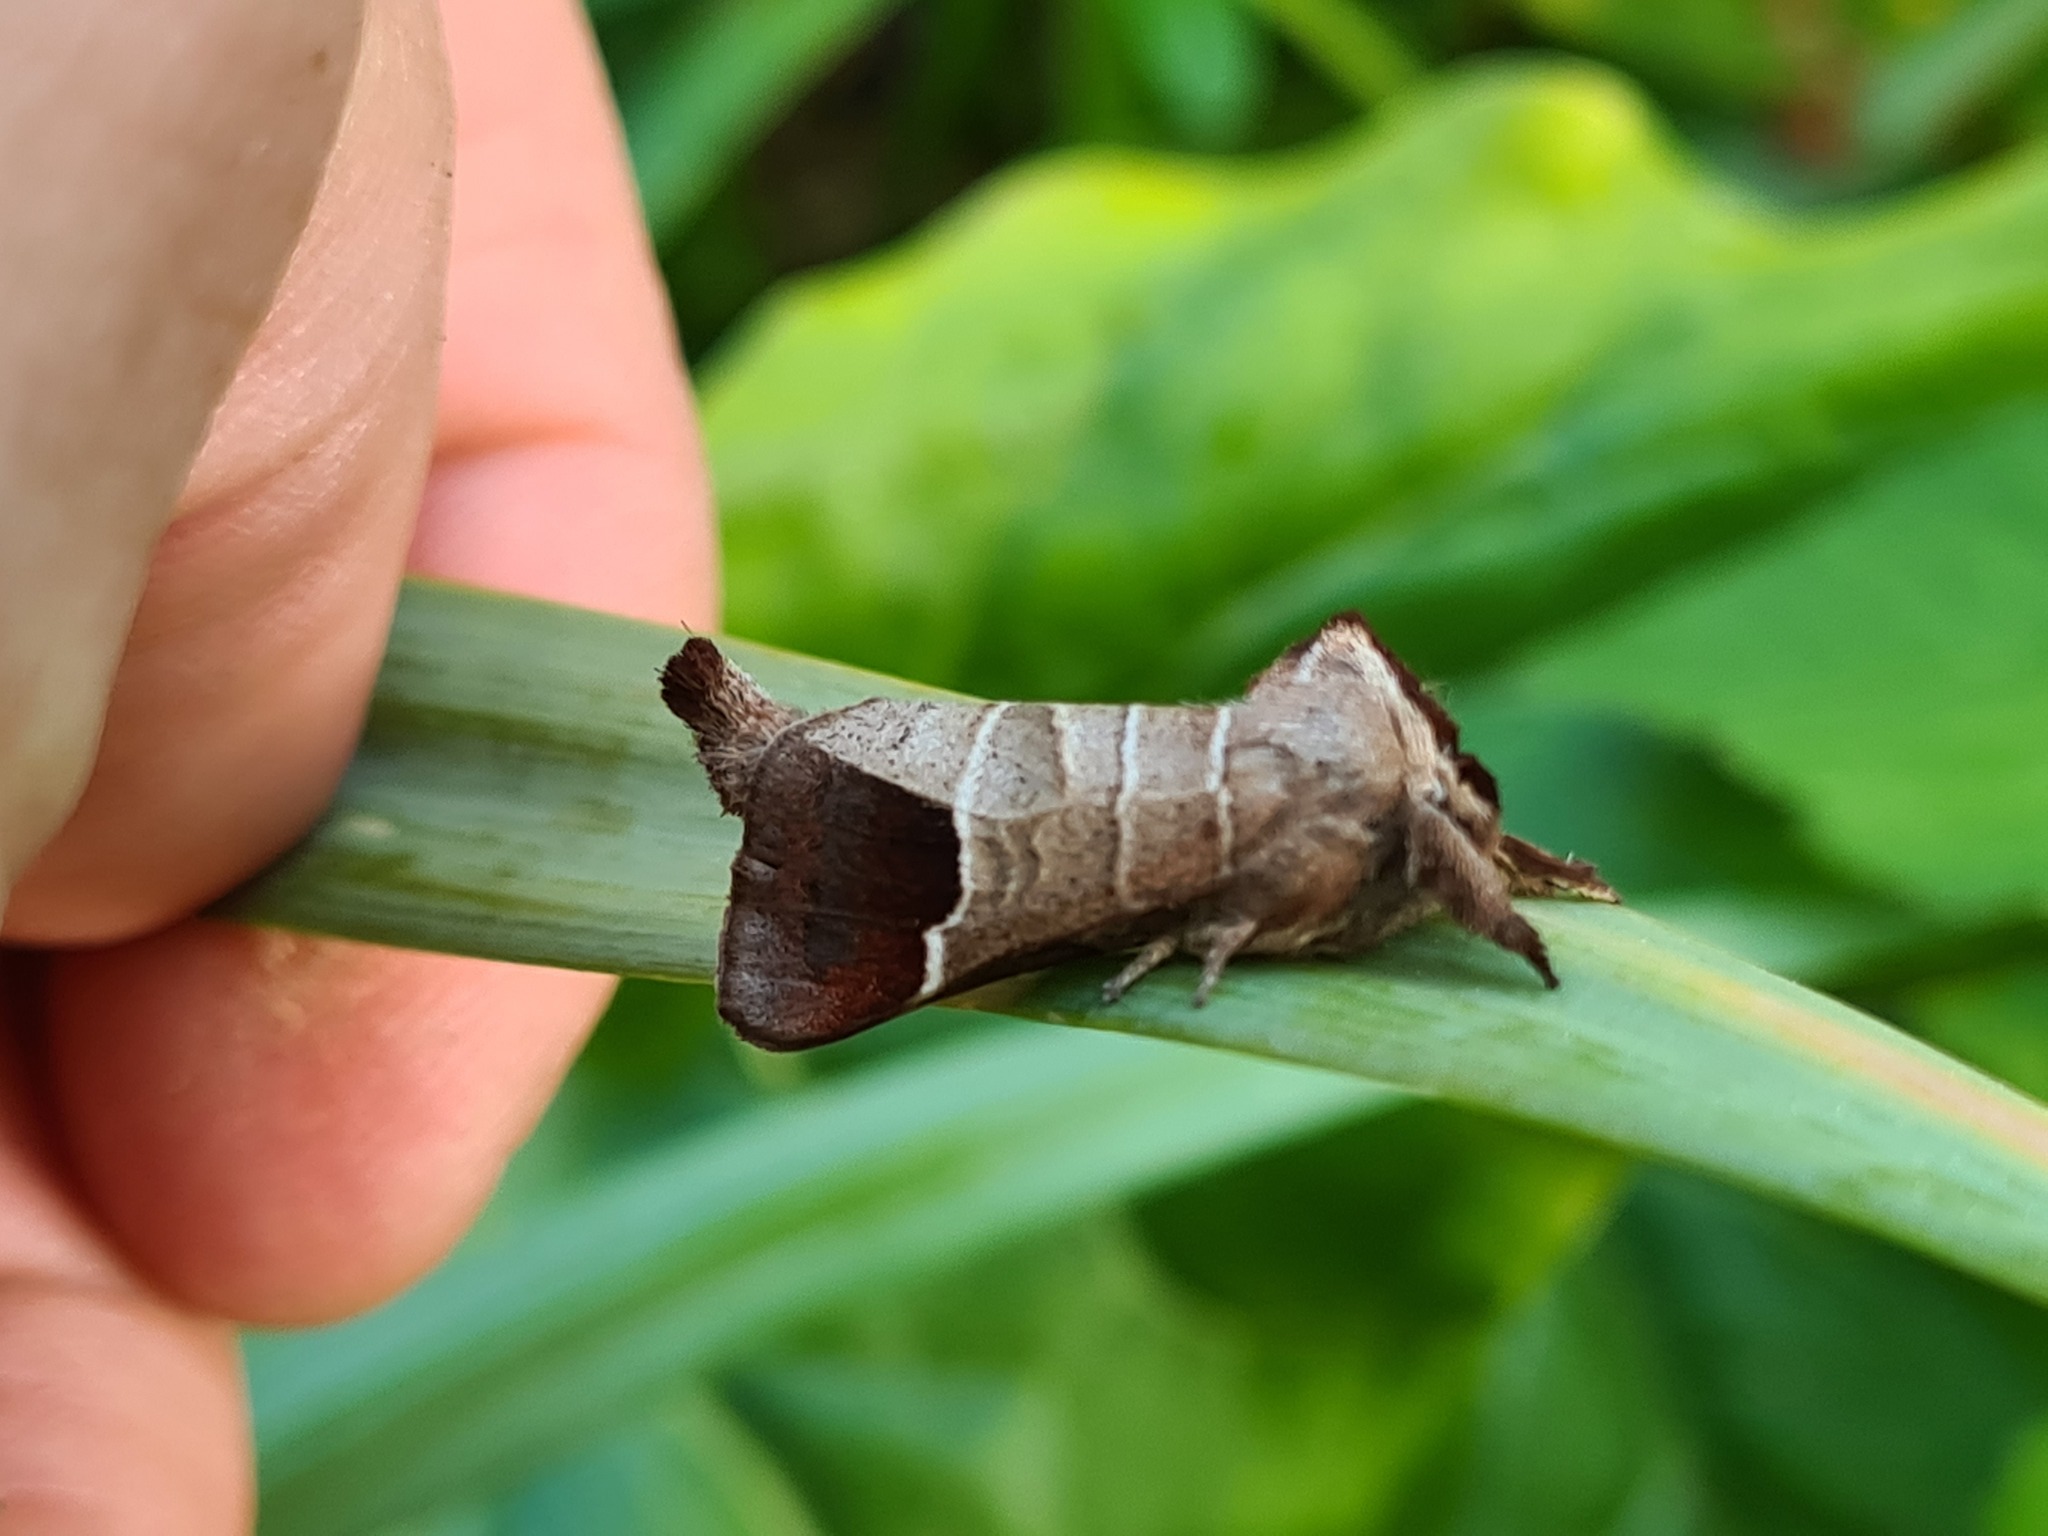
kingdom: Animalia
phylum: Arthropoda
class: Insecta
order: Lepidoptera
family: Notodontidae
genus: Clostera
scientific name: Clostera curtula
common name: Chocolate-tip
